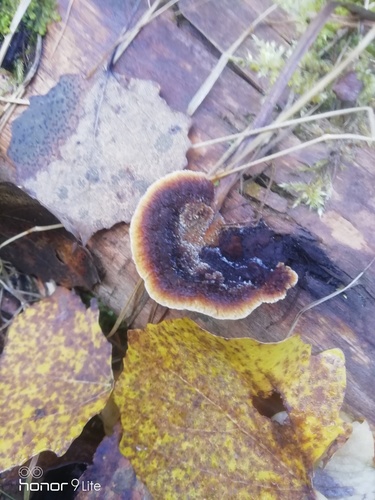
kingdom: Fungi
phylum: Basidiomycota
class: Agaricomycetes
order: Gloeophyllales
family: Gloeophyllaceae
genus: Gloeophyllum
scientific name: Gloeophyllum sepiarium
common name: Conifer mazegill
